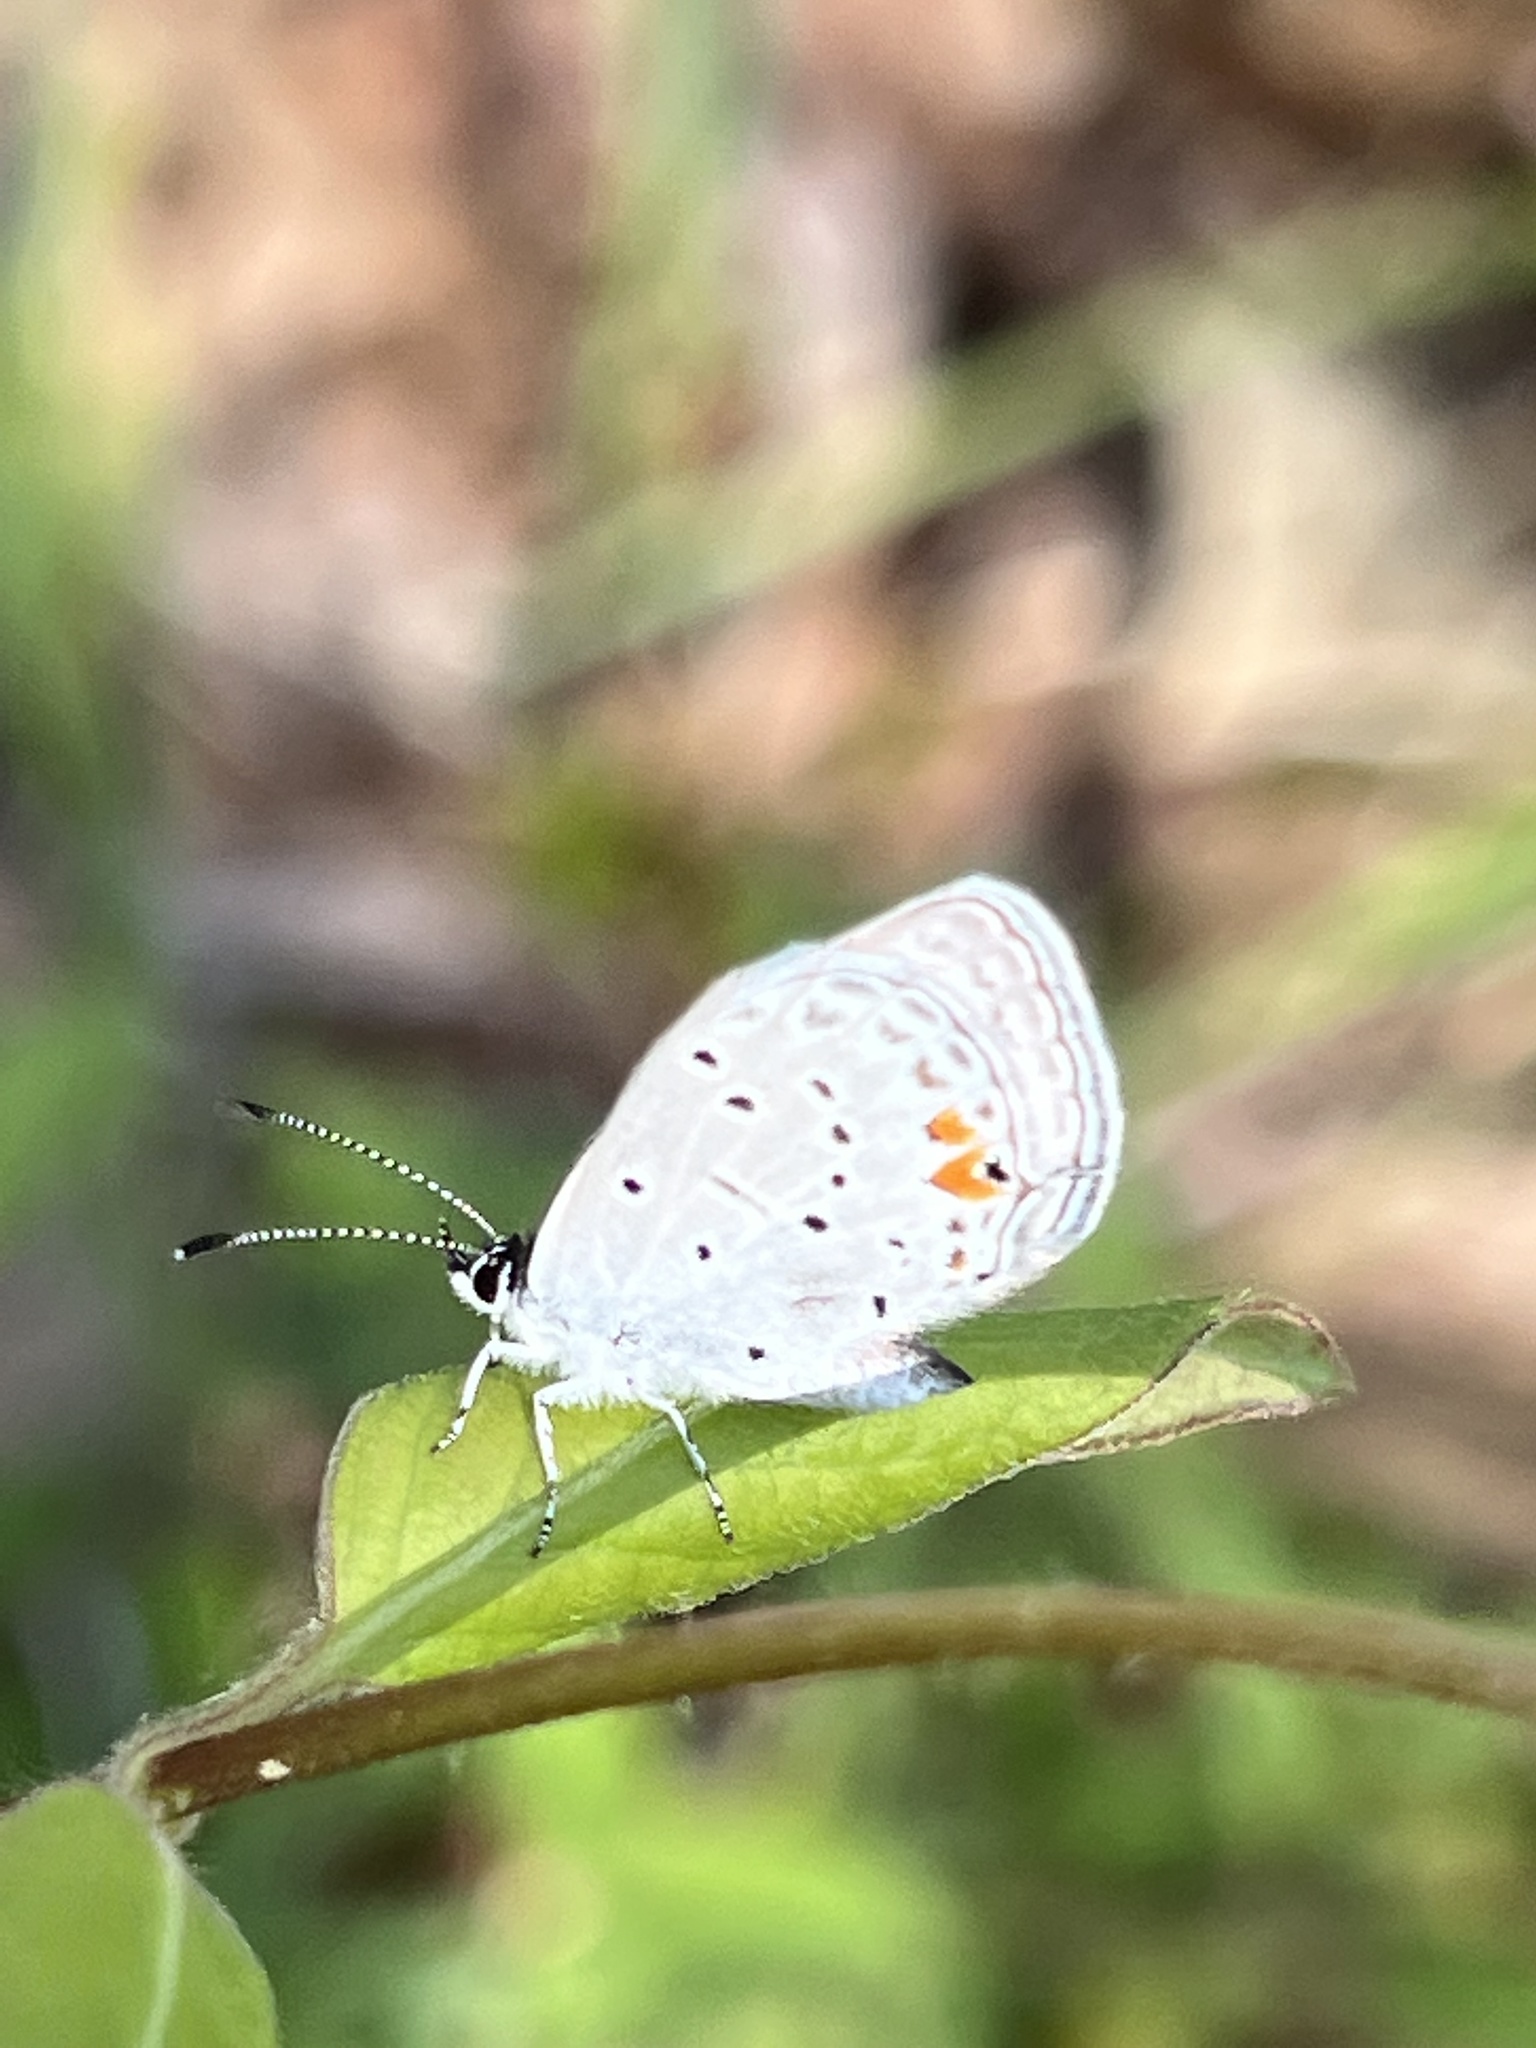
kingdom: Animalia
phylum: Arthropoda
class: Insecta
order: Lepidoptera
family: Lycaenidae
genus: Elkalyce
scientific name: Elkalyce comyntas
